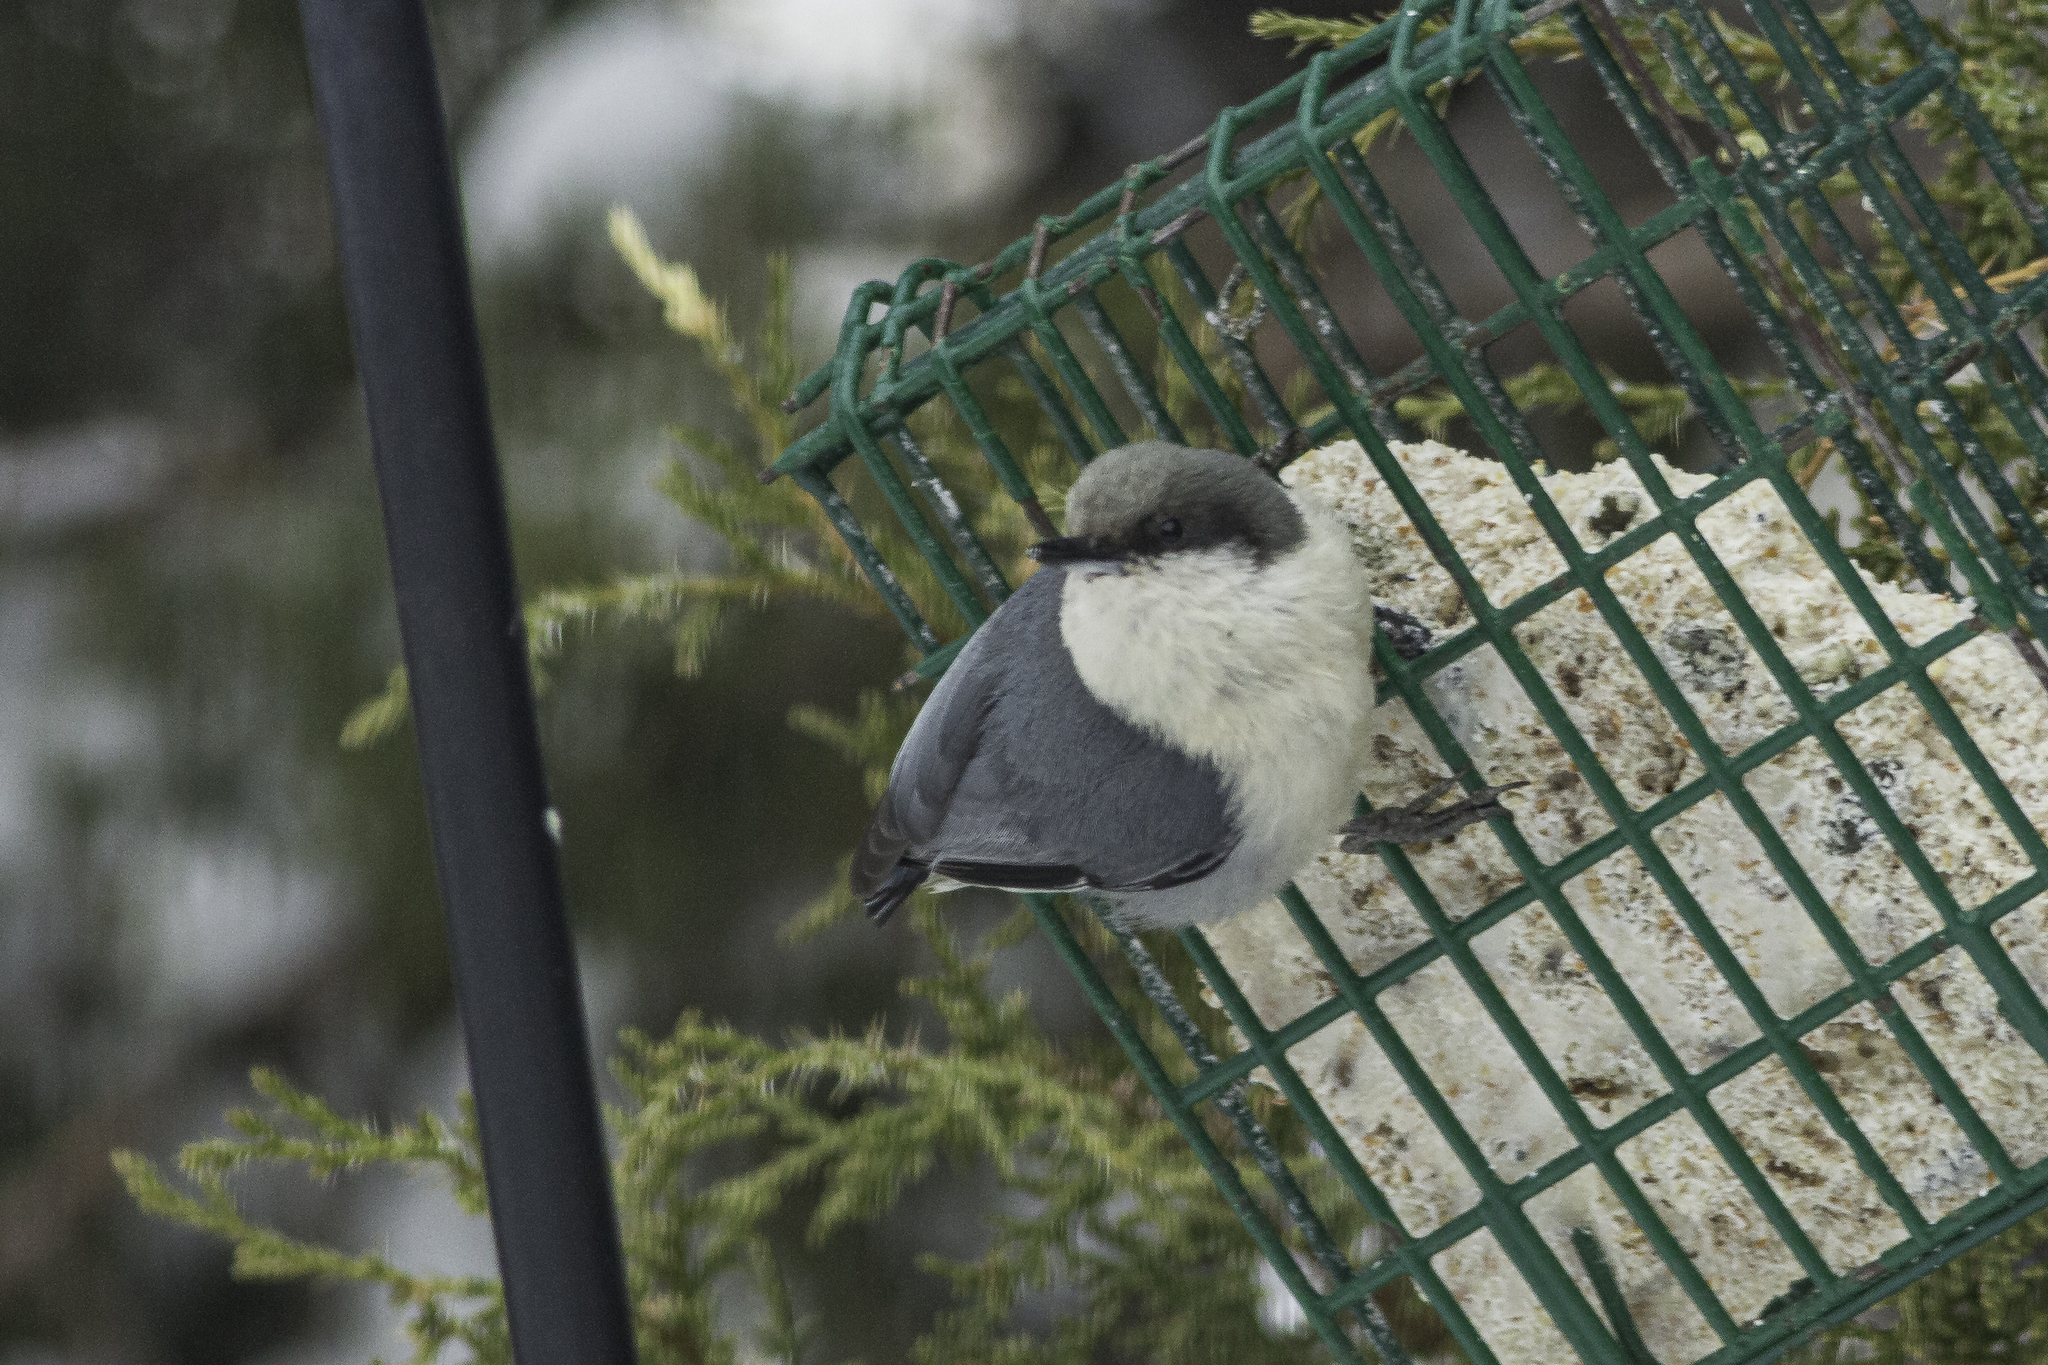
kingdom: Animalia
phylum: Chordata
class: Aves
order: Passeriformes
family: Sittidae
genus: Sitta
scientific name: Sitta pygmaea
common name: Pygmy nuthatch
